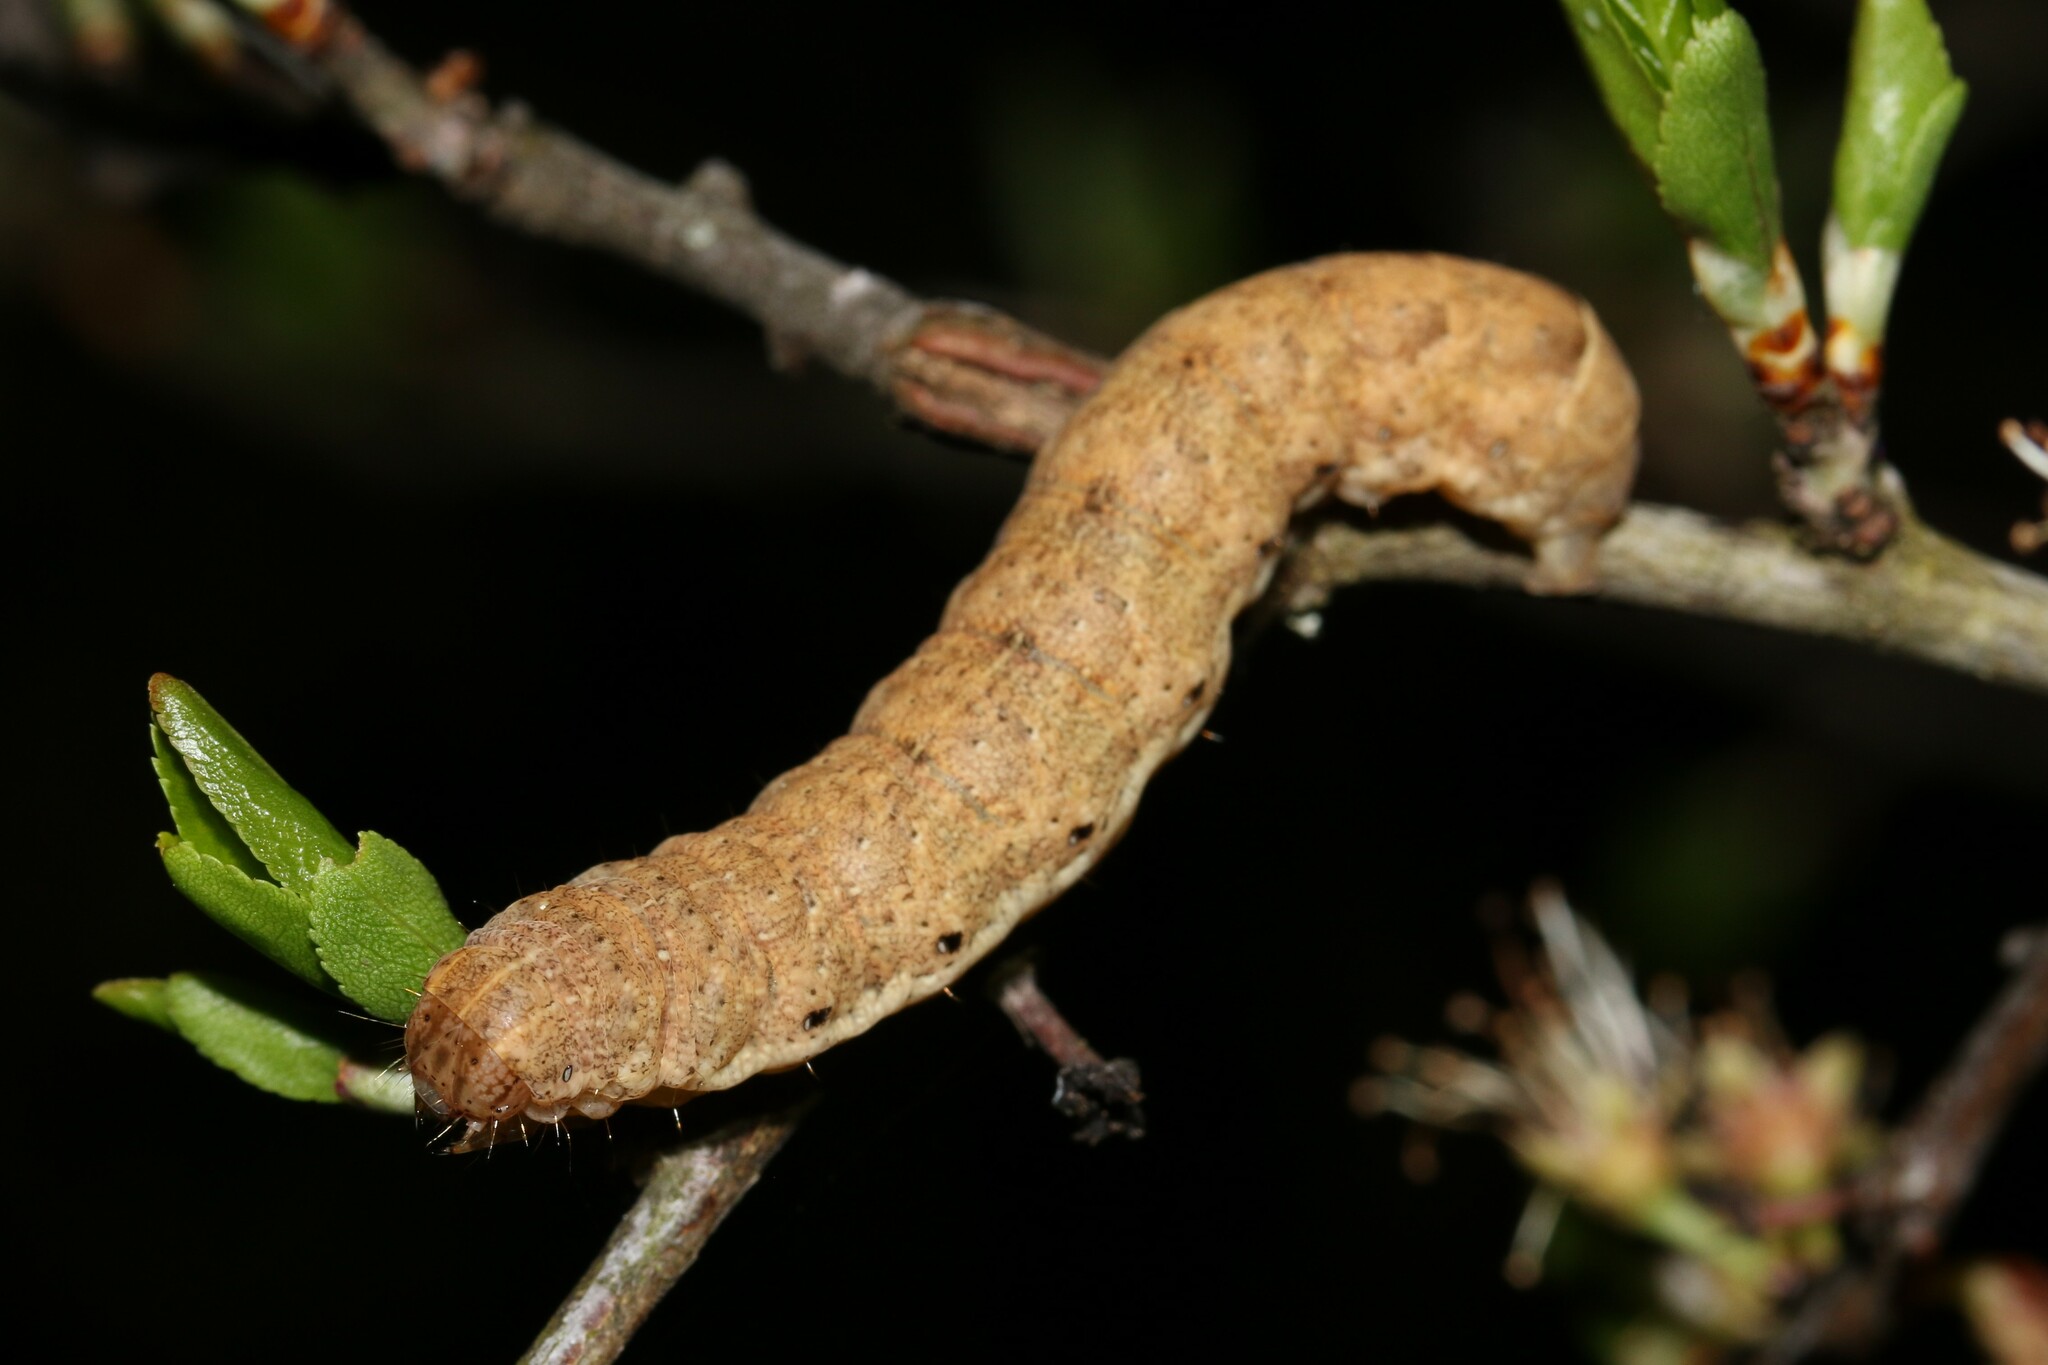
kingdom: Animalia
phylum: Arthropoda
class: Insecta
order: Lepidoptera
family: Noctuidae
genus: Noctua
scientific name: Noctua fimbriata
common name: Broad-bordered yellow underwing
